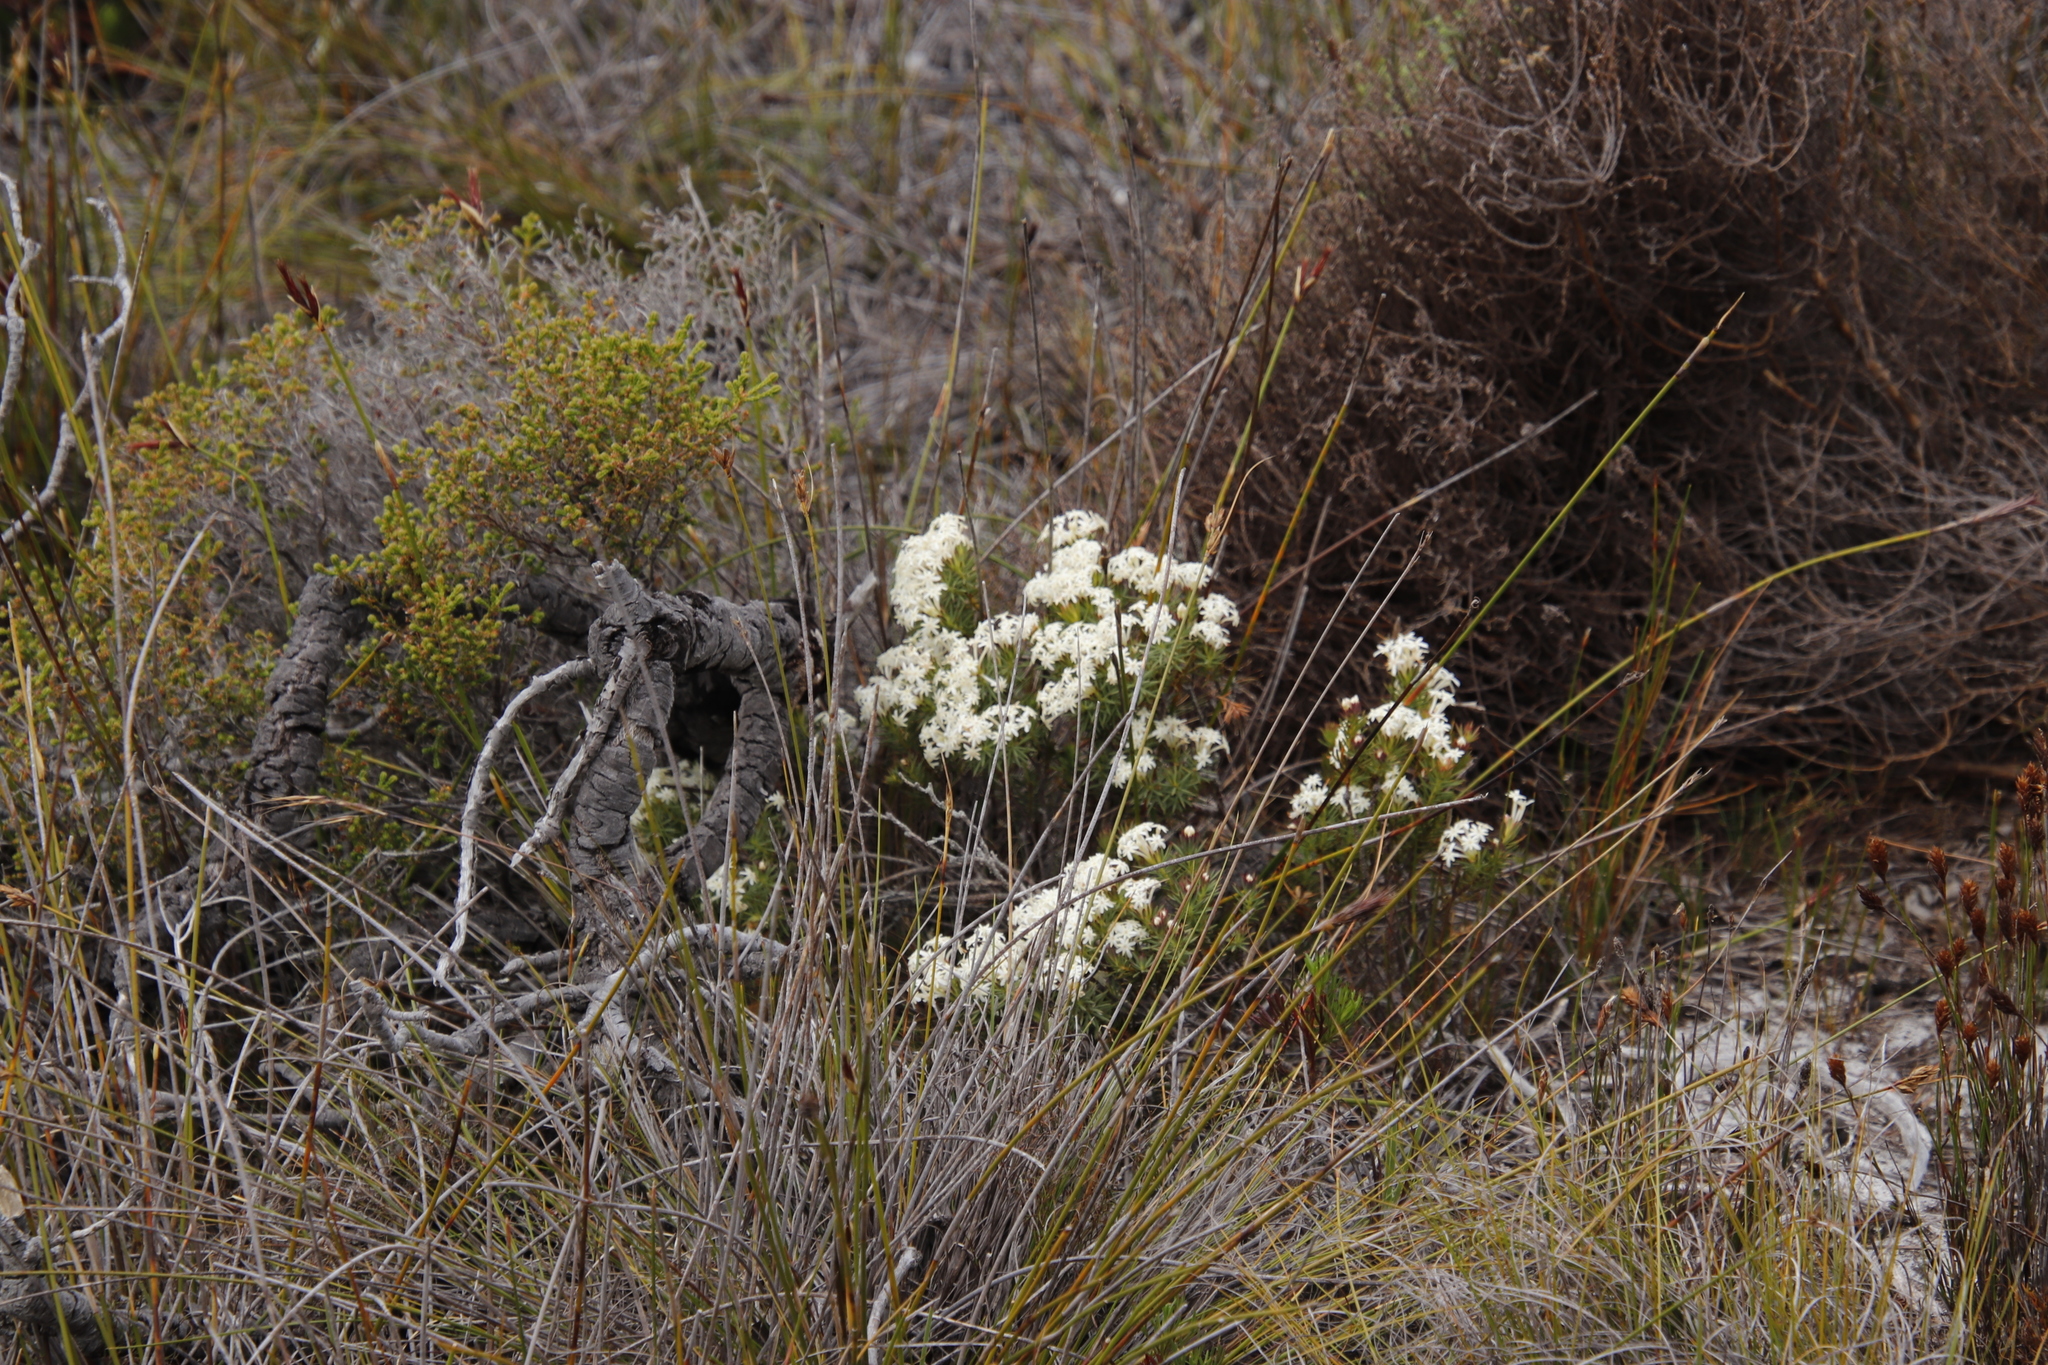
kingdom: Plantae
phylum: Tracheophyta
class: Magnoliopsida
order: Malvales
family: Thymelaeaceae
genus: Gnidia
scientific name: Gnidia pinifolia
